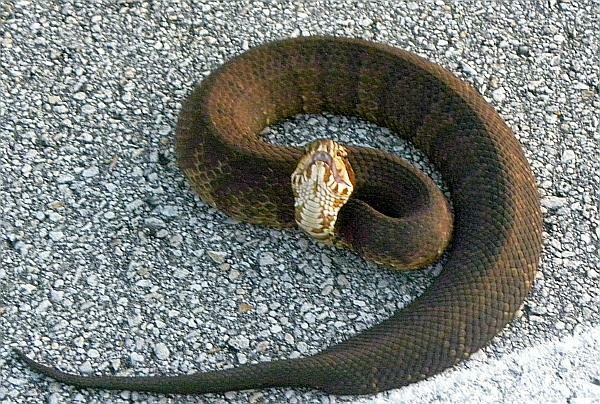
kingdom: Animalia
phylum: Chordata
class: Squamata
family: Viperidae
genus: Agkistrodon
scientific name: Agkistrodon conanti
